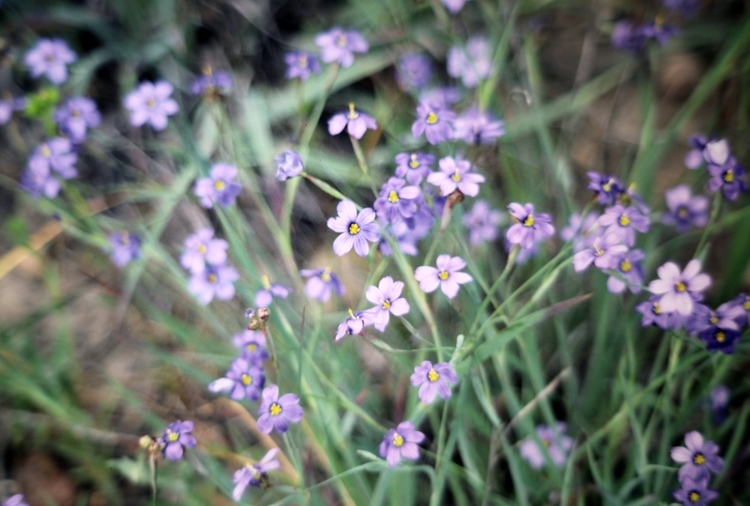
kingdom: Plantae
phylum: Tracheophyta
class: Liliopsida
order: Asparagales
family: Iridaceae
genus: Sisyrinchium
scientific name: Sisyrinchium bellum
